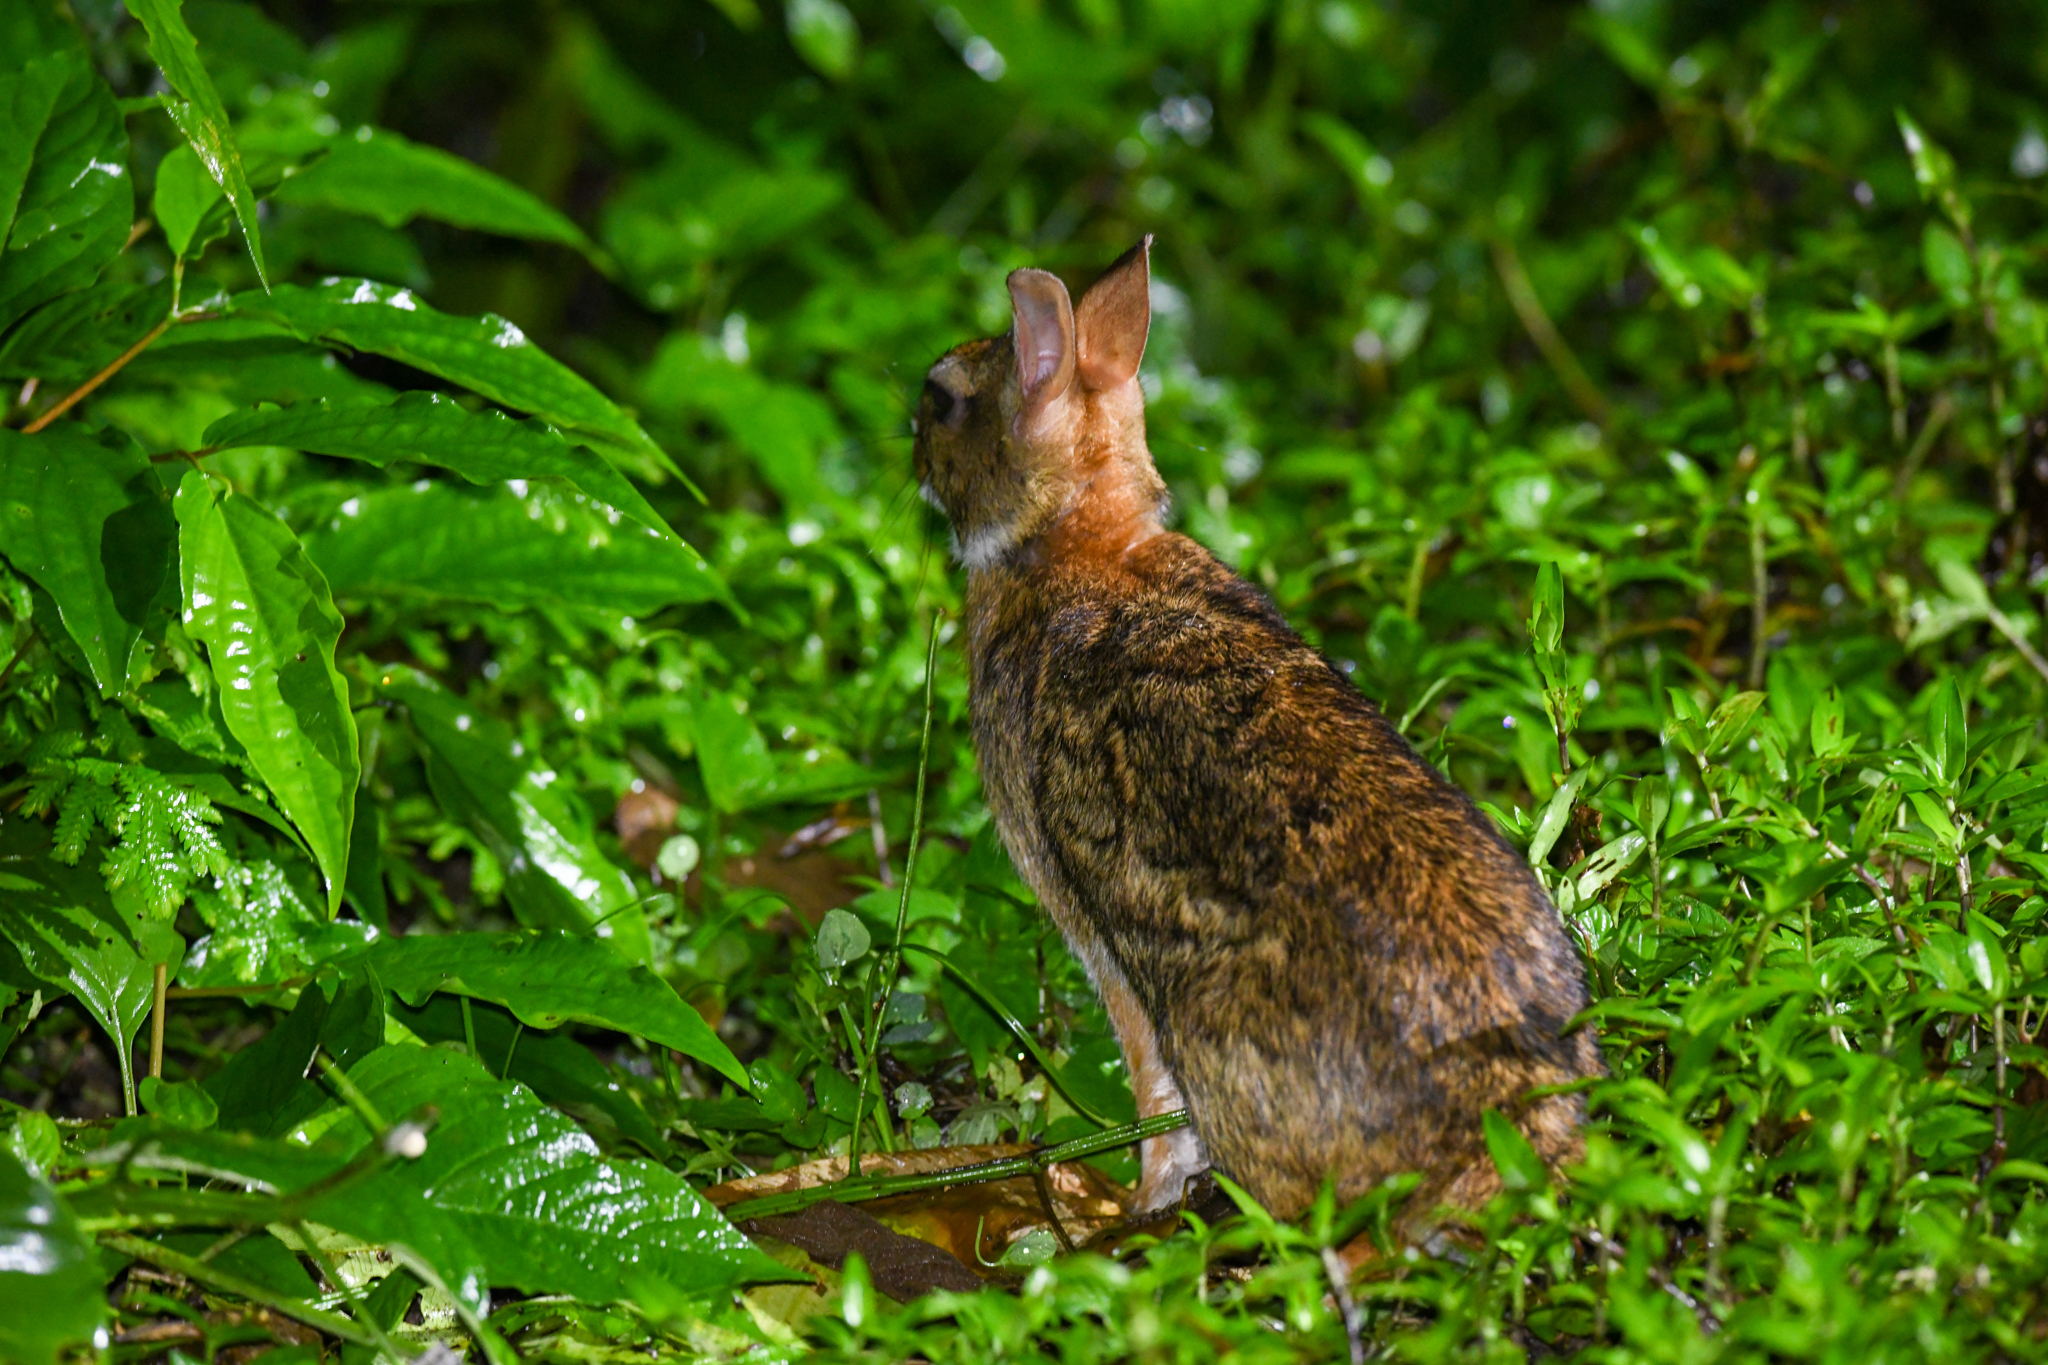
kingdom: Animalia
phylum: Chordata
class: Mammalia
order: Lagomorpha
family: Leporidae
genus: Sylvilagus
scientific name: Sylvilagus gabbi
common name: Gabb's cottontail
